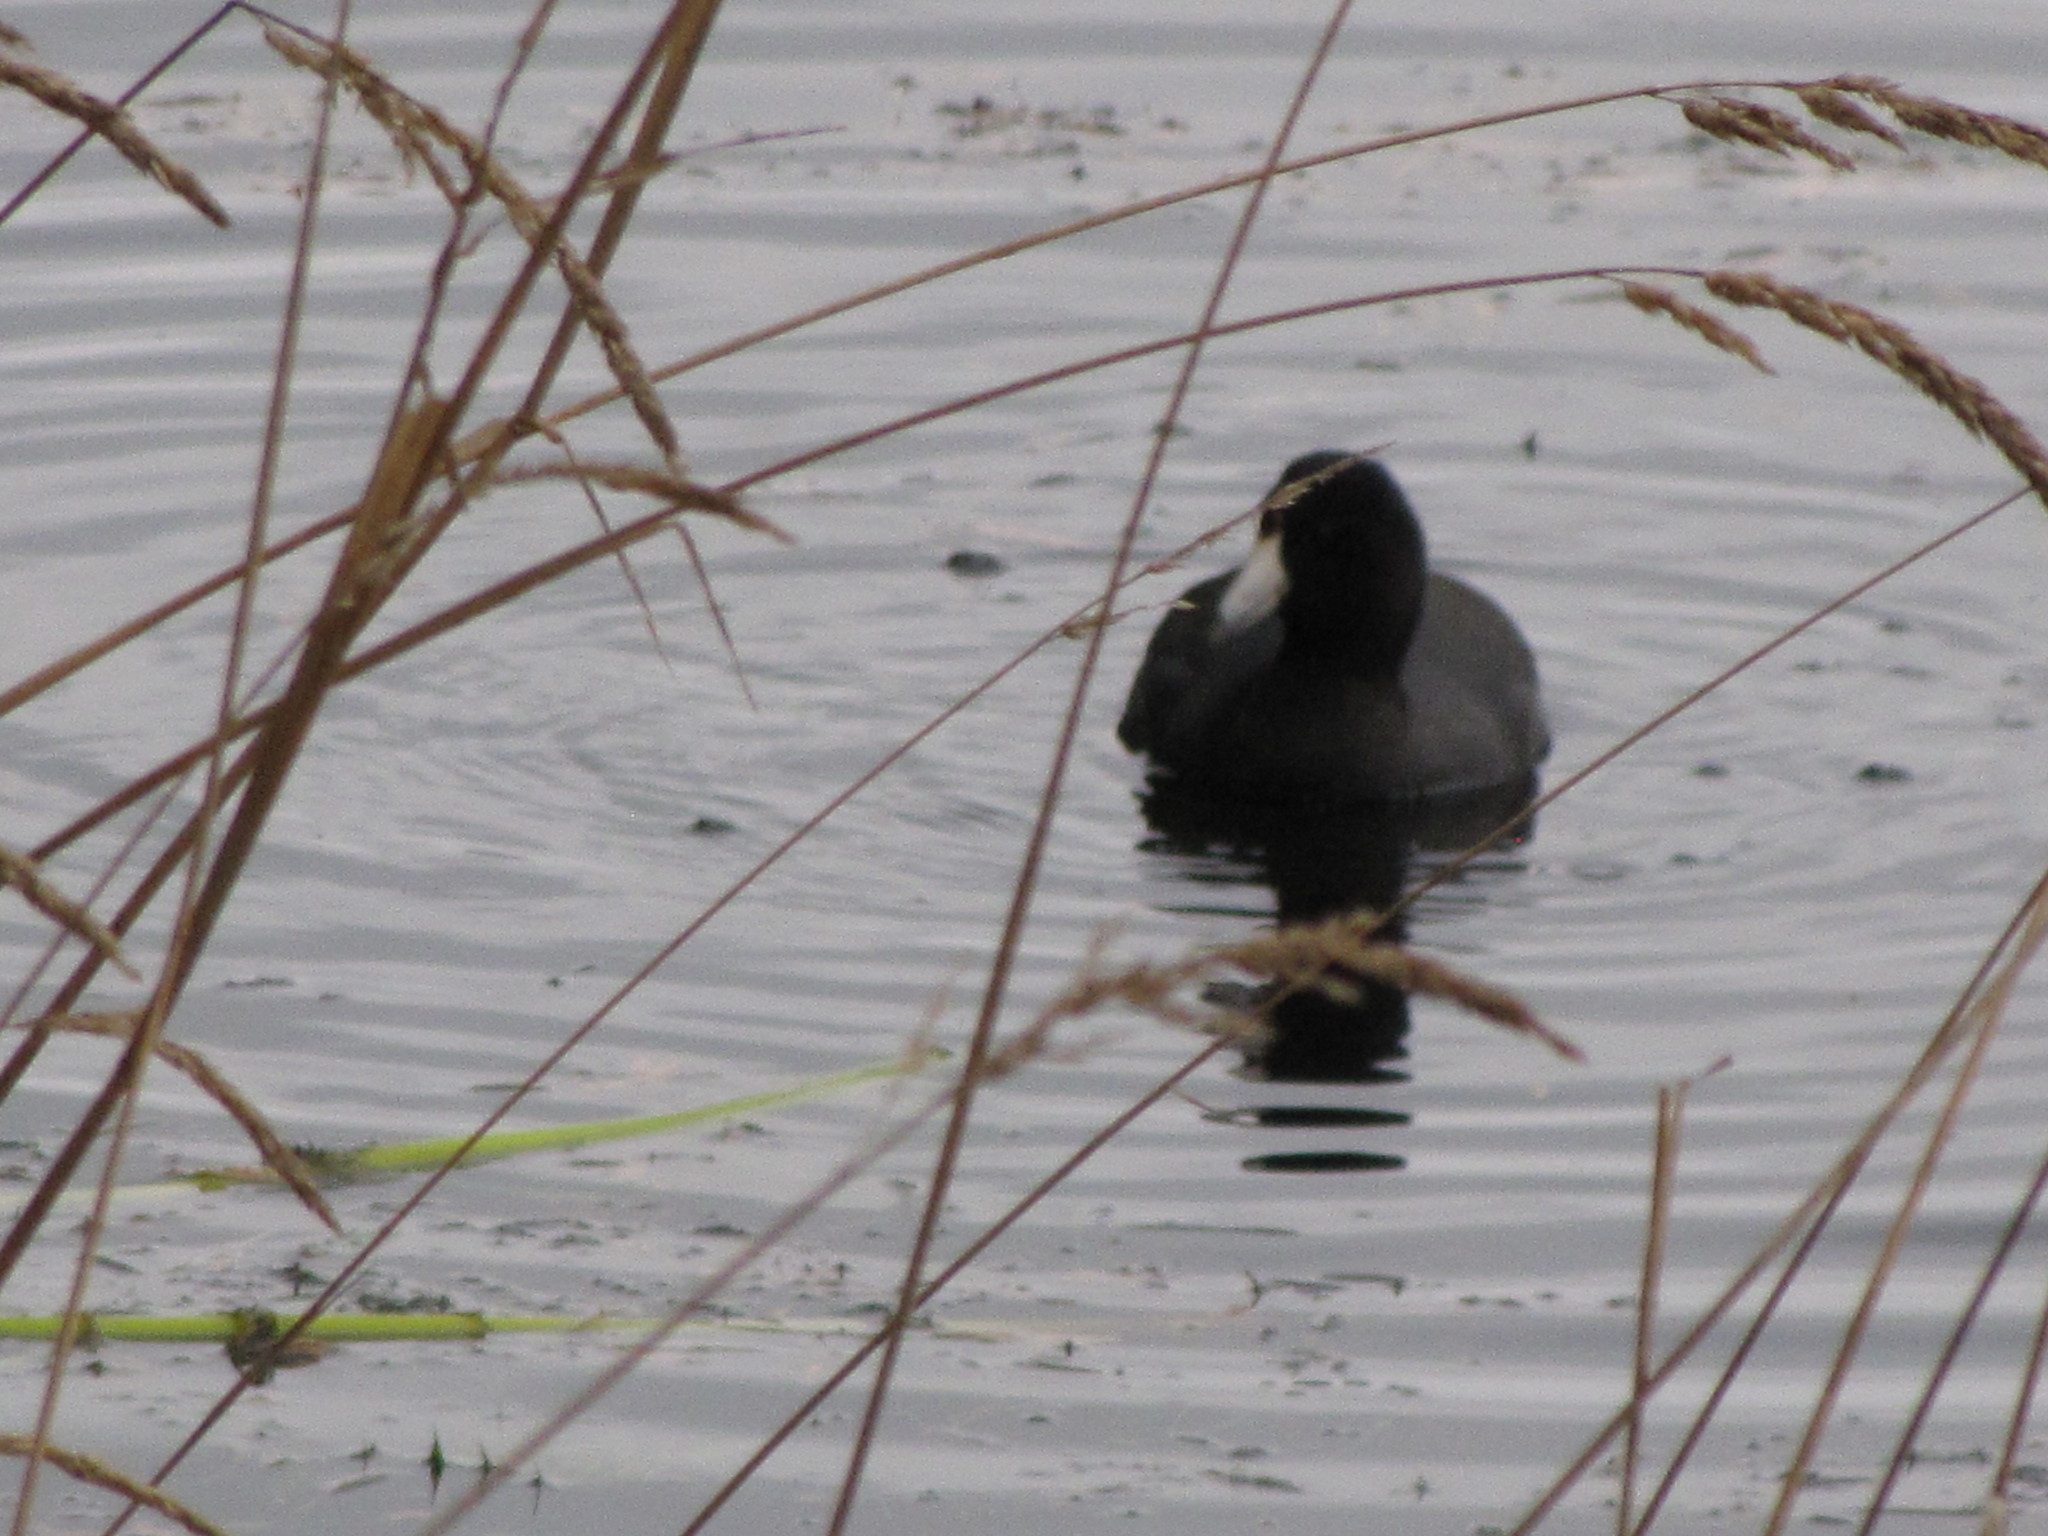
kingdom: Animalia
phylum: Chordata
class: Aves
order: Gruiformes
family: Rallidae
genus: Fulica
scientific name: Fulica americana
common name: American coot
